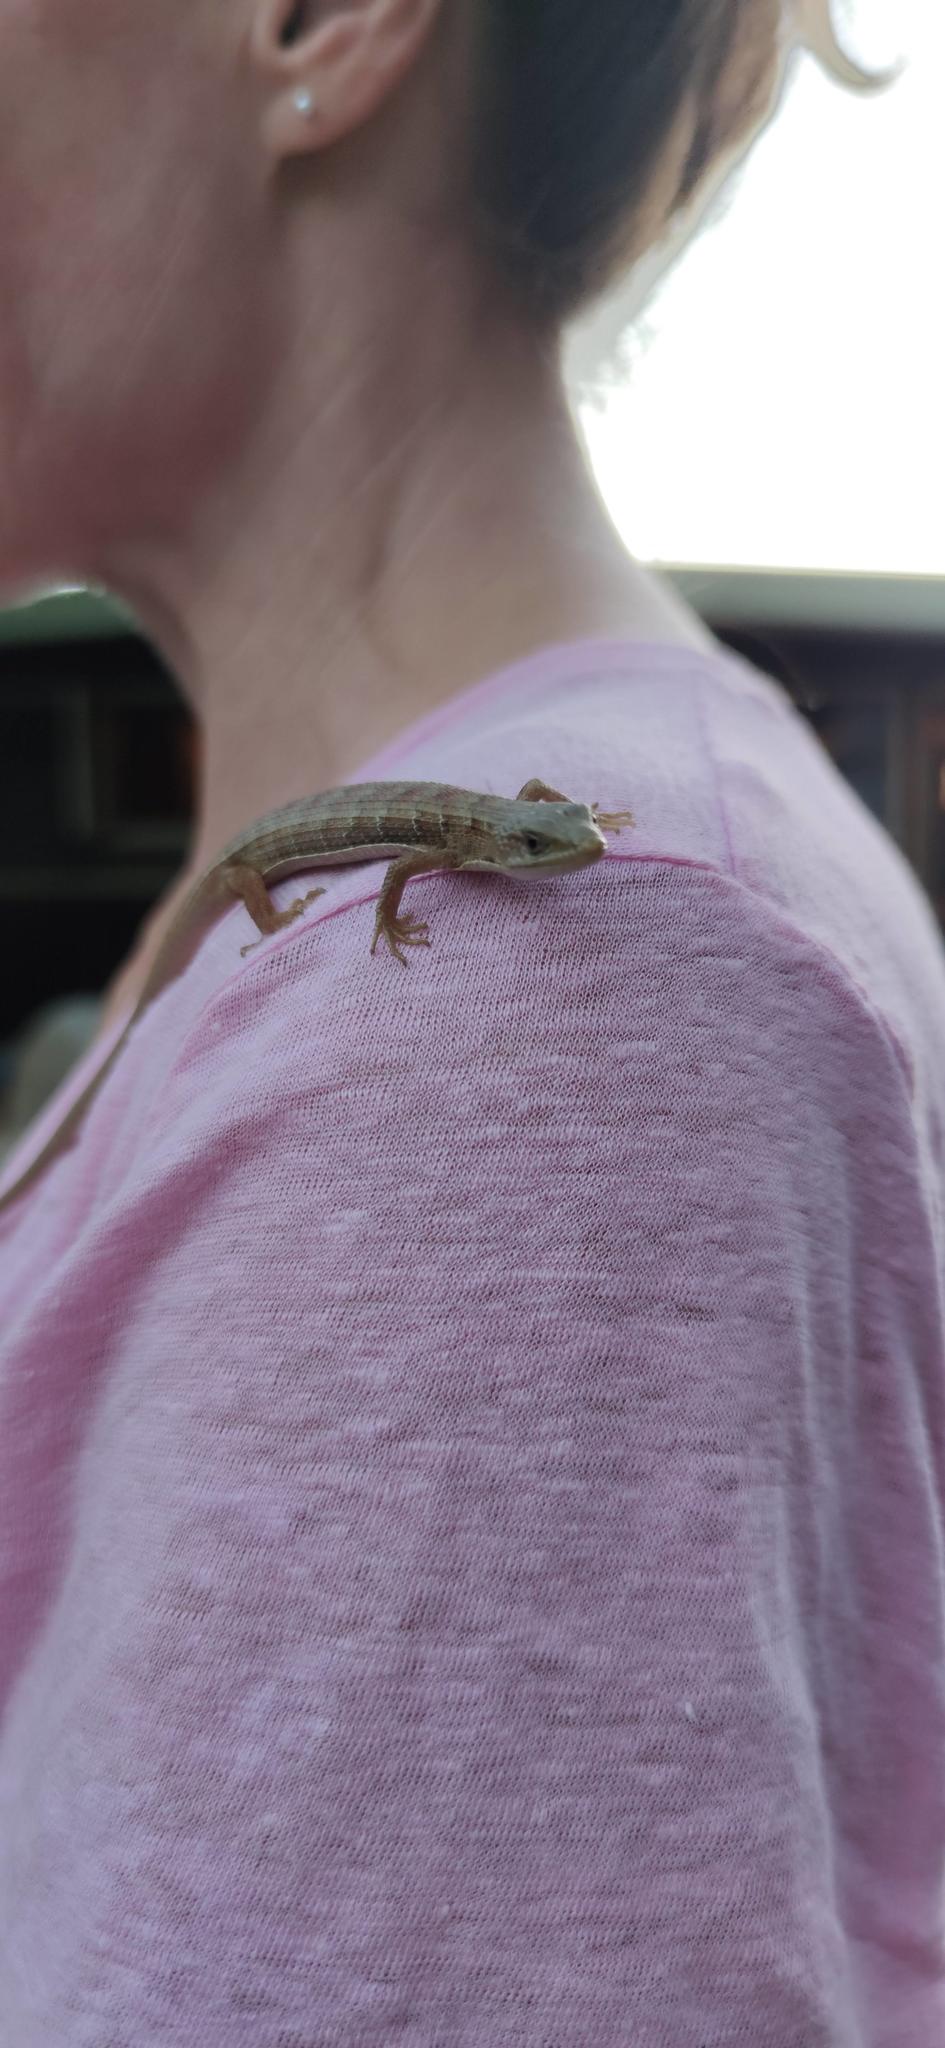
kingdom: Animalia
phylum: Chordata
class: Squamata
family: Anguidae
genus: Elgaria
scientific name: Elgaria multicarinata
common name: Southern alligator lizard
